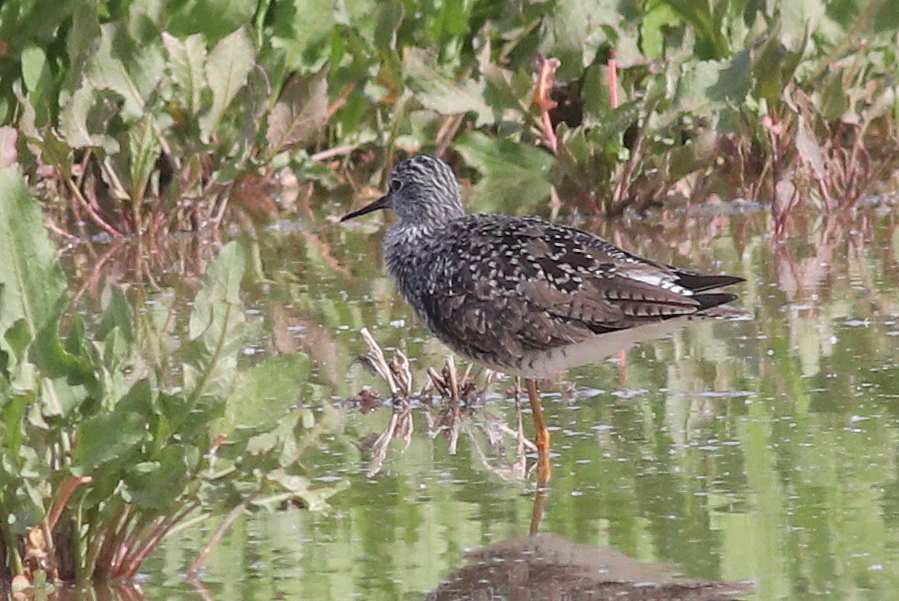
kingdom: Animalia
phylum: Chordata
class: Aves
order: Charadriiformes
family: Scolopacidae
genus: Tringa
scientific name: Tringa flavipes
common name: Lesser yellowlegs
